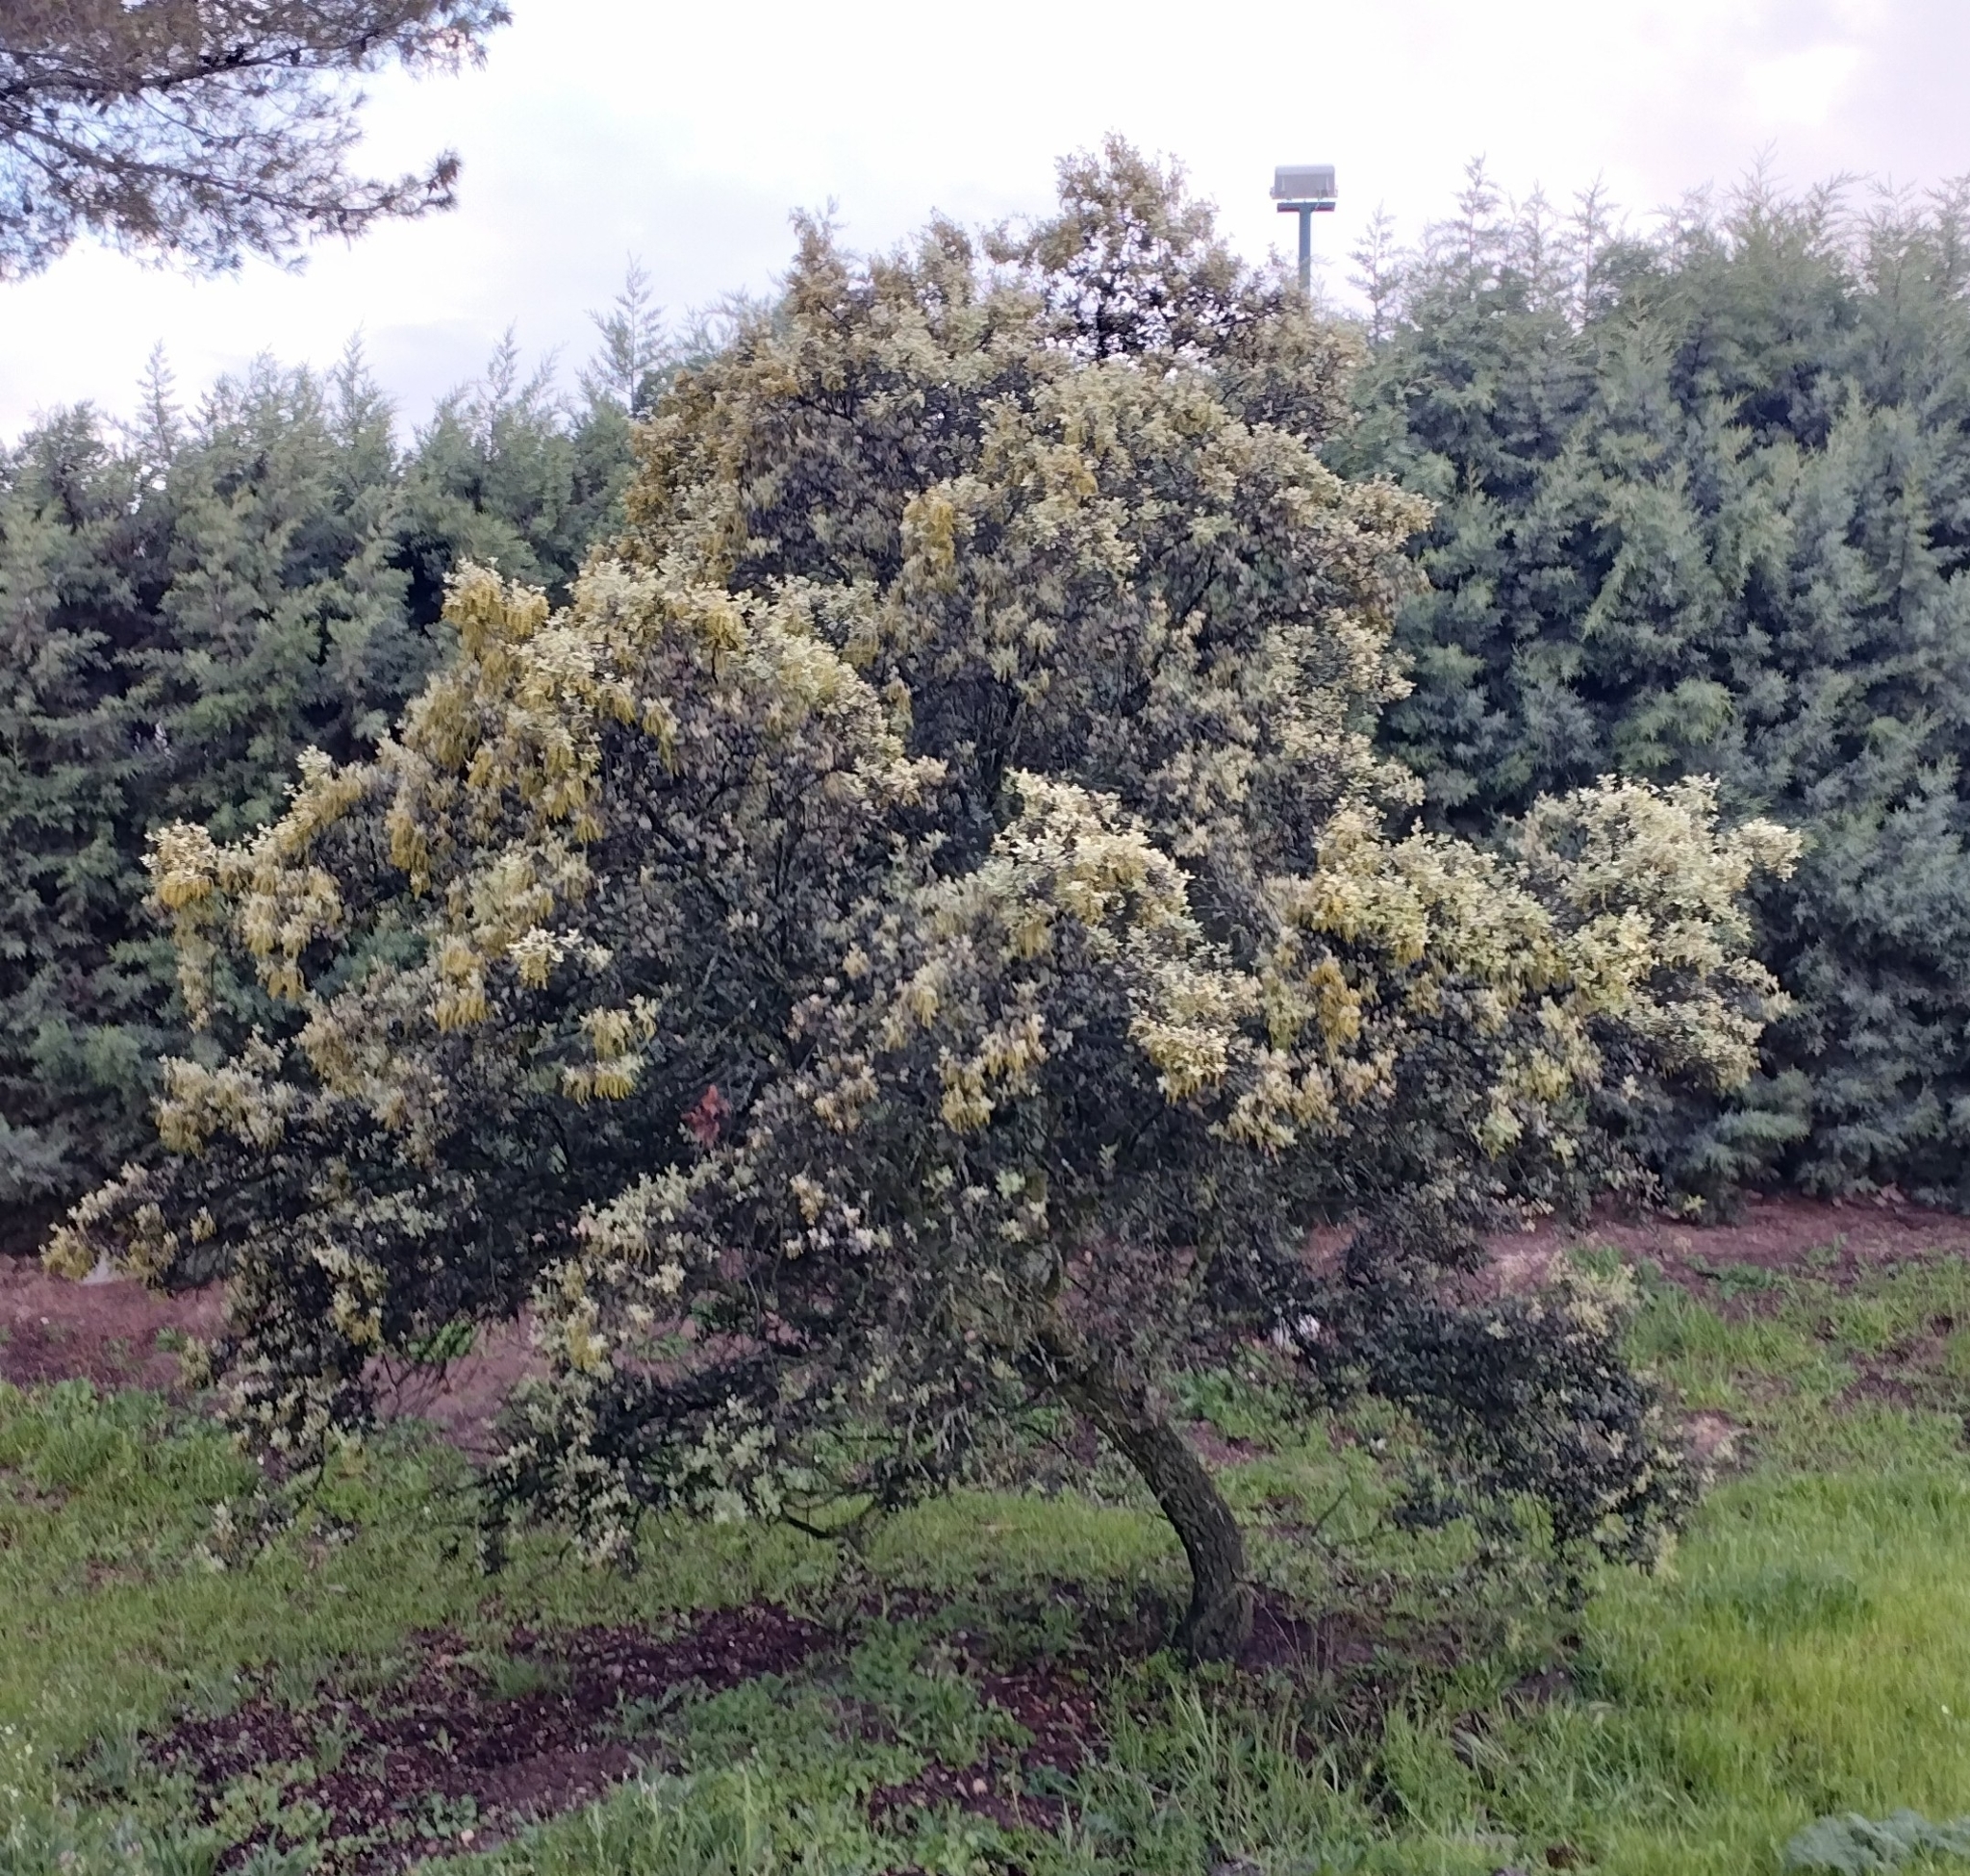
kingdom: Plantae
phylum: Tracheophyta
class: Magnoliopsida
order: Fagales
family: Fagaceae
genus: Quercus
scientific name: Quercus rotundifolia
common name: Holm oak
